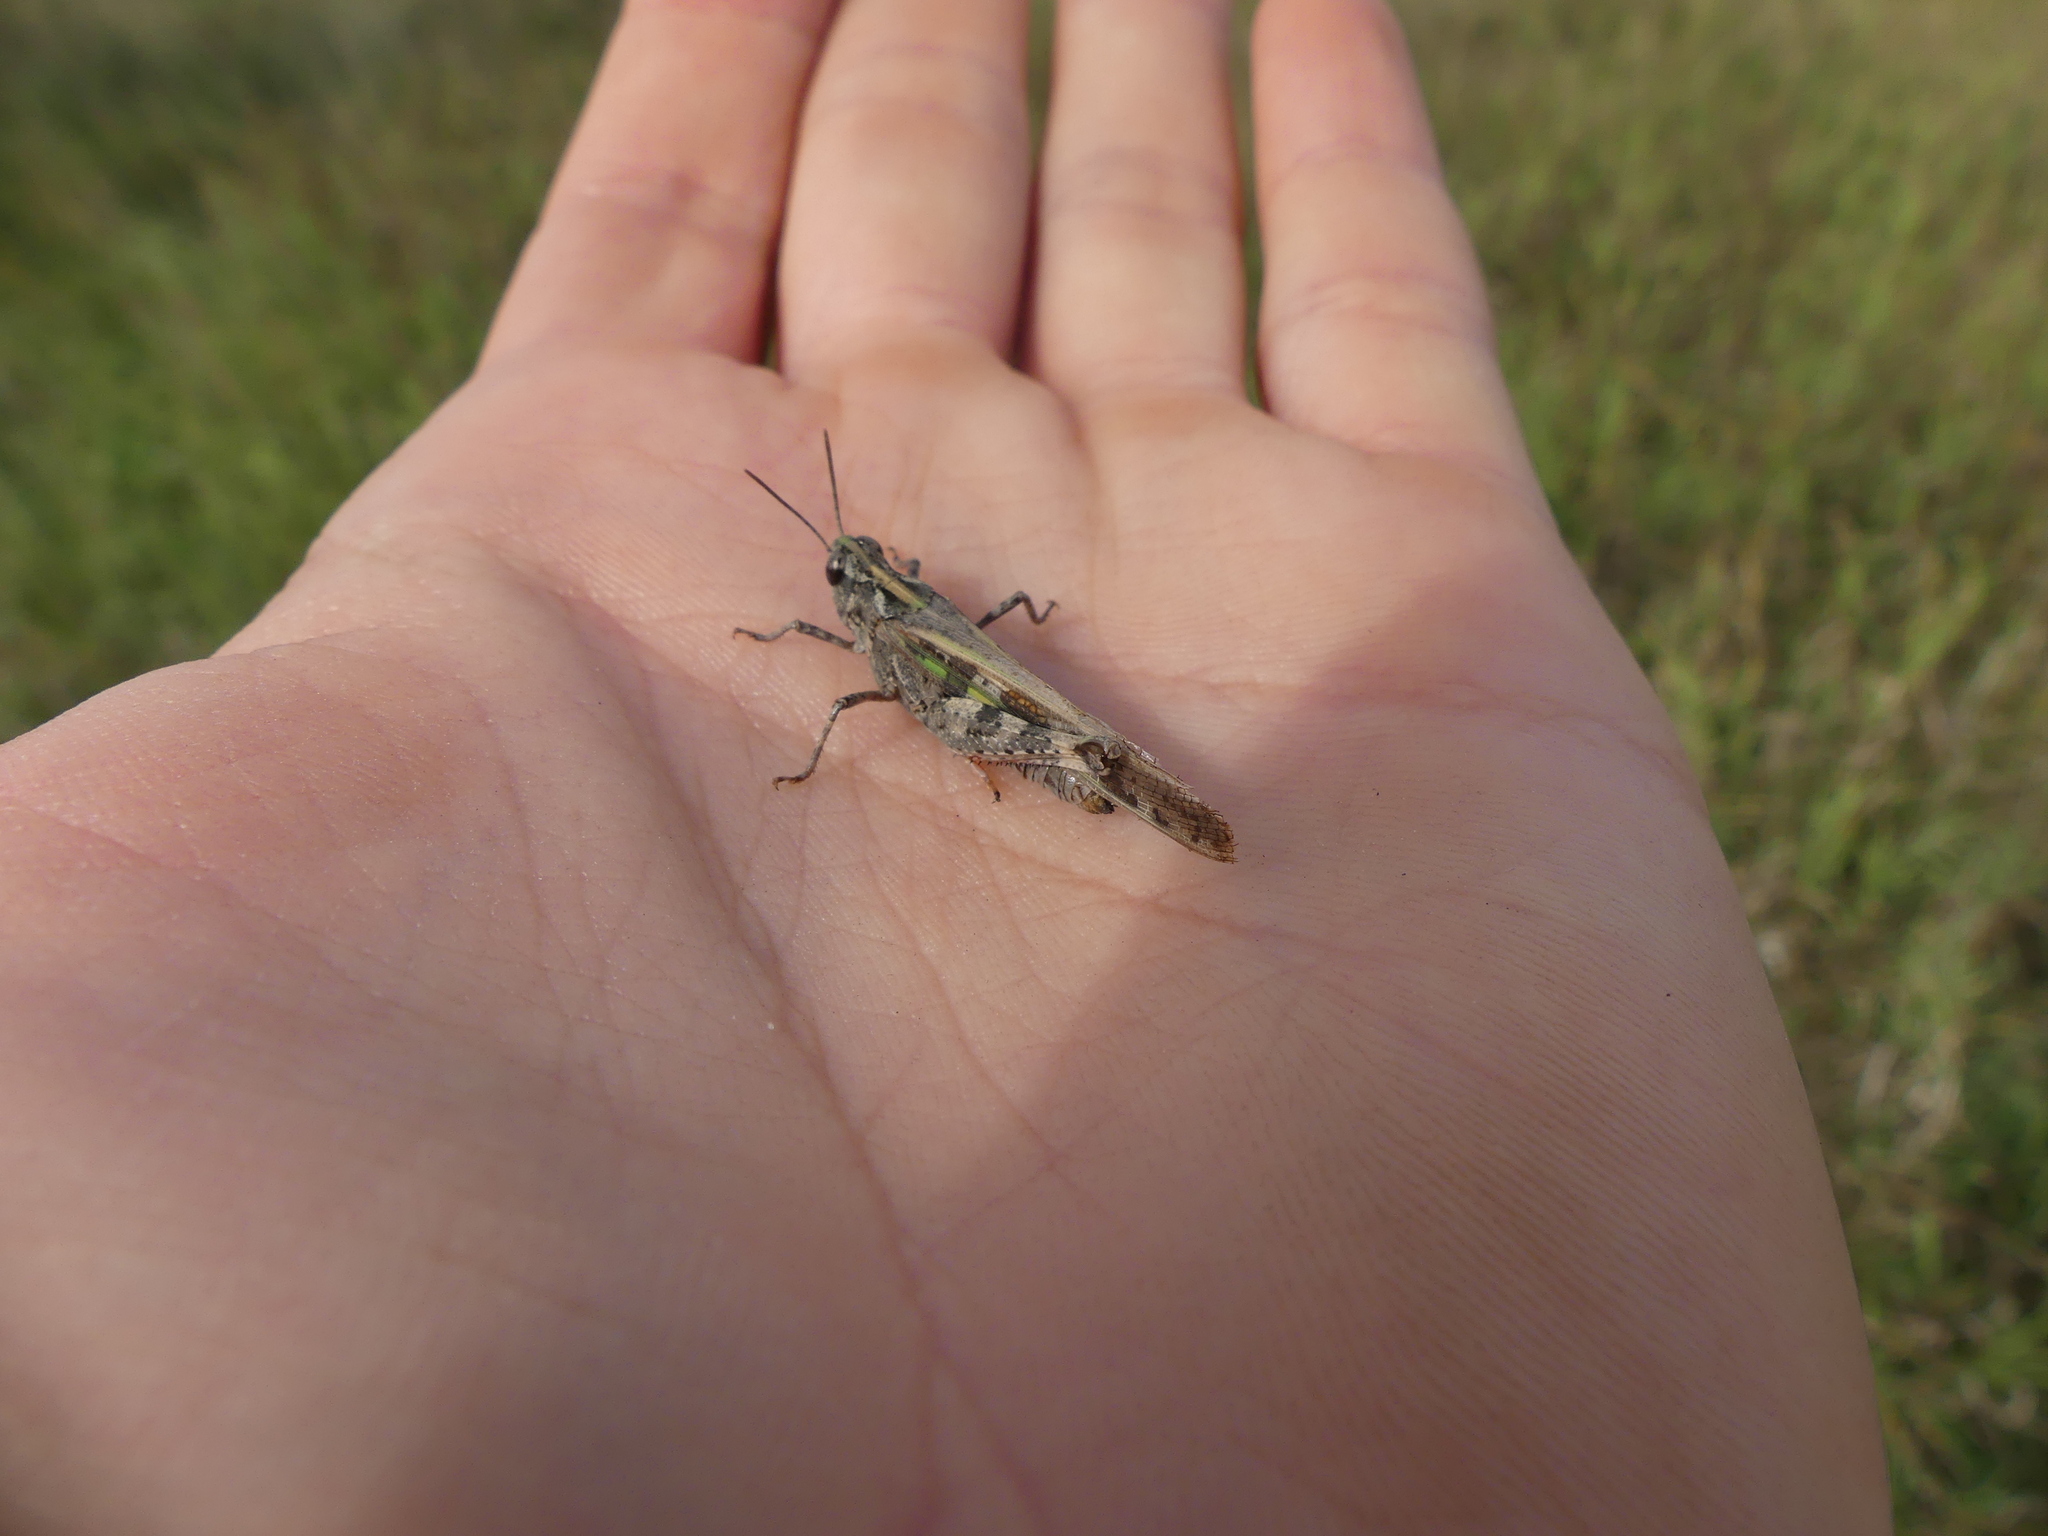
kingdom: Animalia
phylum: Arthropoda
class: Insecta
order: Orthoptera
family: Acrididae
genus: Aiolopus
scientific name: Aiolopus thalassinus
